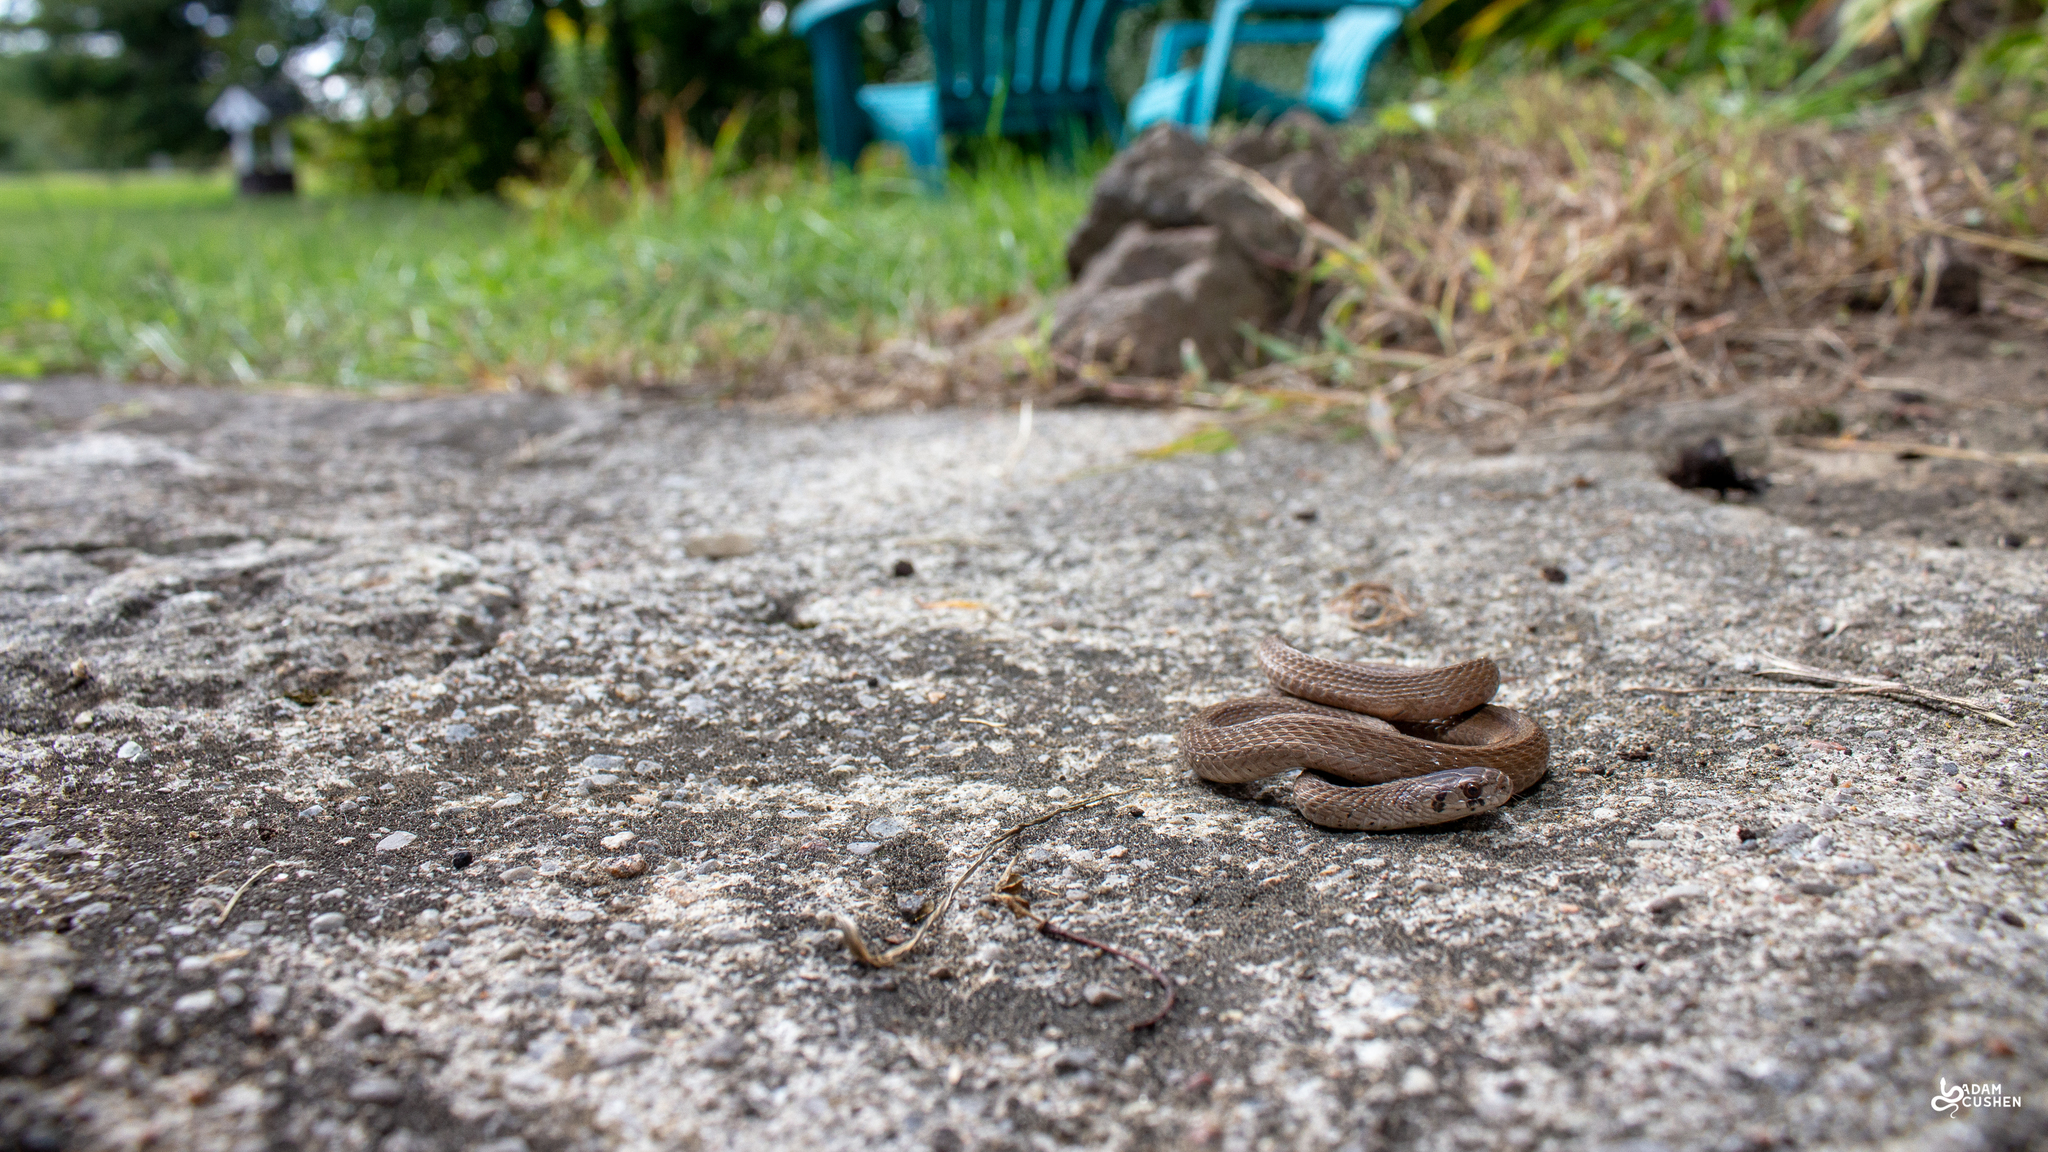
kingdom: Animalia
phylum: Chordata
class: Squamata
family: Colubridae
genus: Storeria
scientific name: Storeria dekayi
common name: (dekay’s) brown snake
